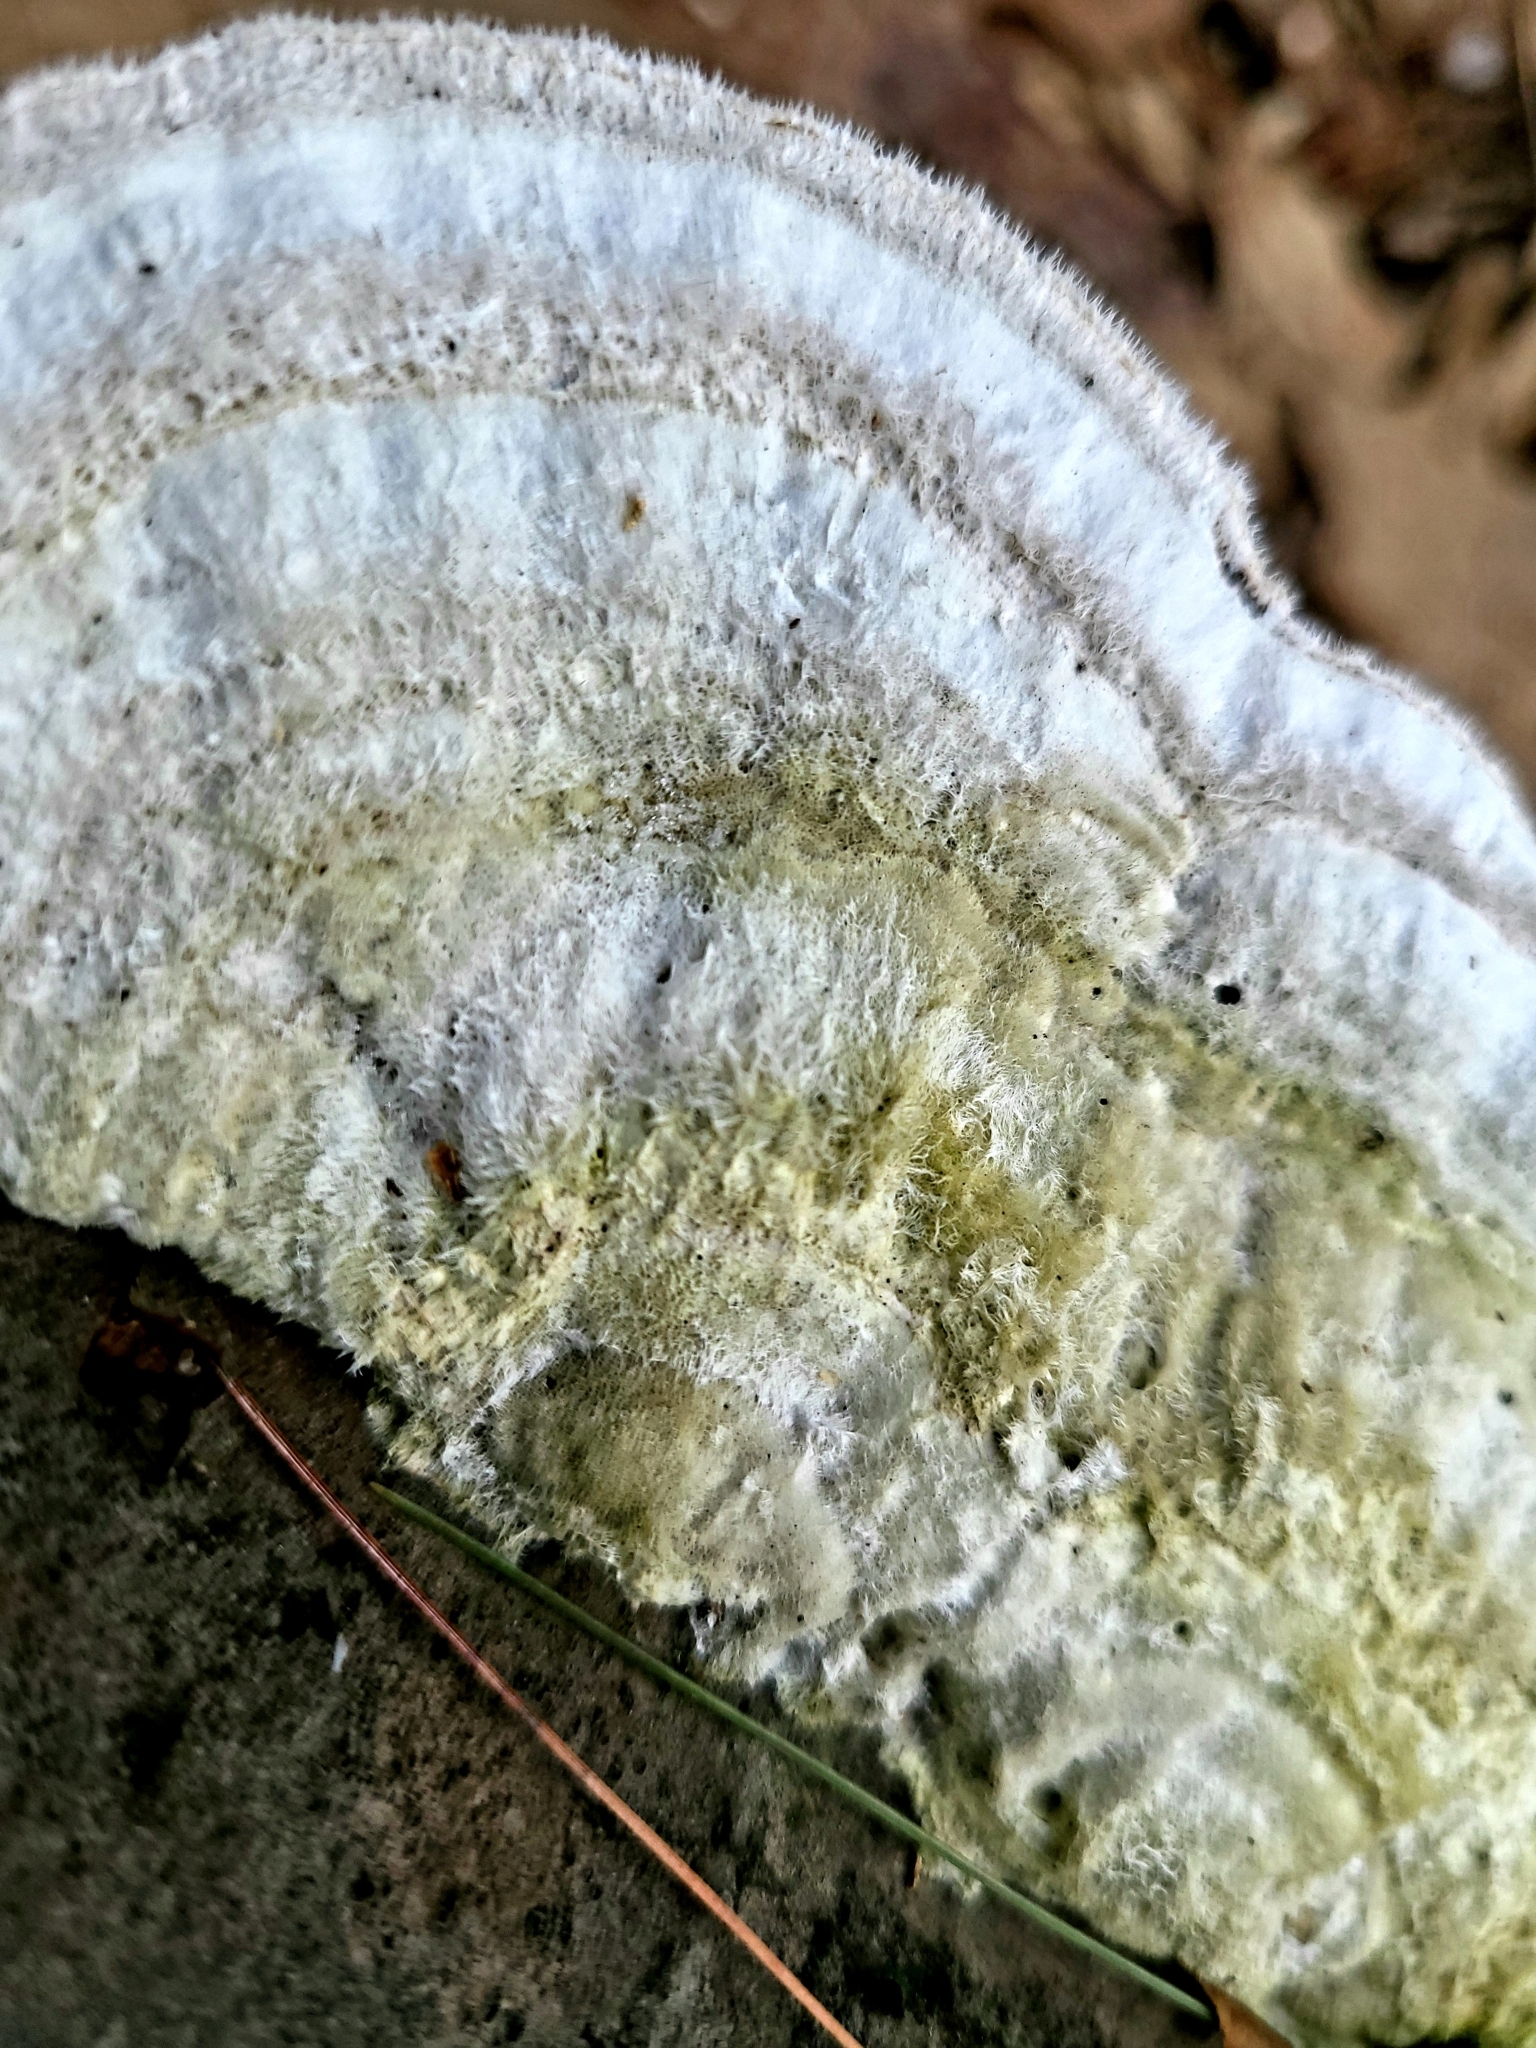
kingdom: Fungi
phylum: Basidiomycota
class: Agaricomycetes
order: Polyporales
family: Polyporaceae
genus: Trametes
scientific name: Trametes hirsuta
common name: Hairy bracket
